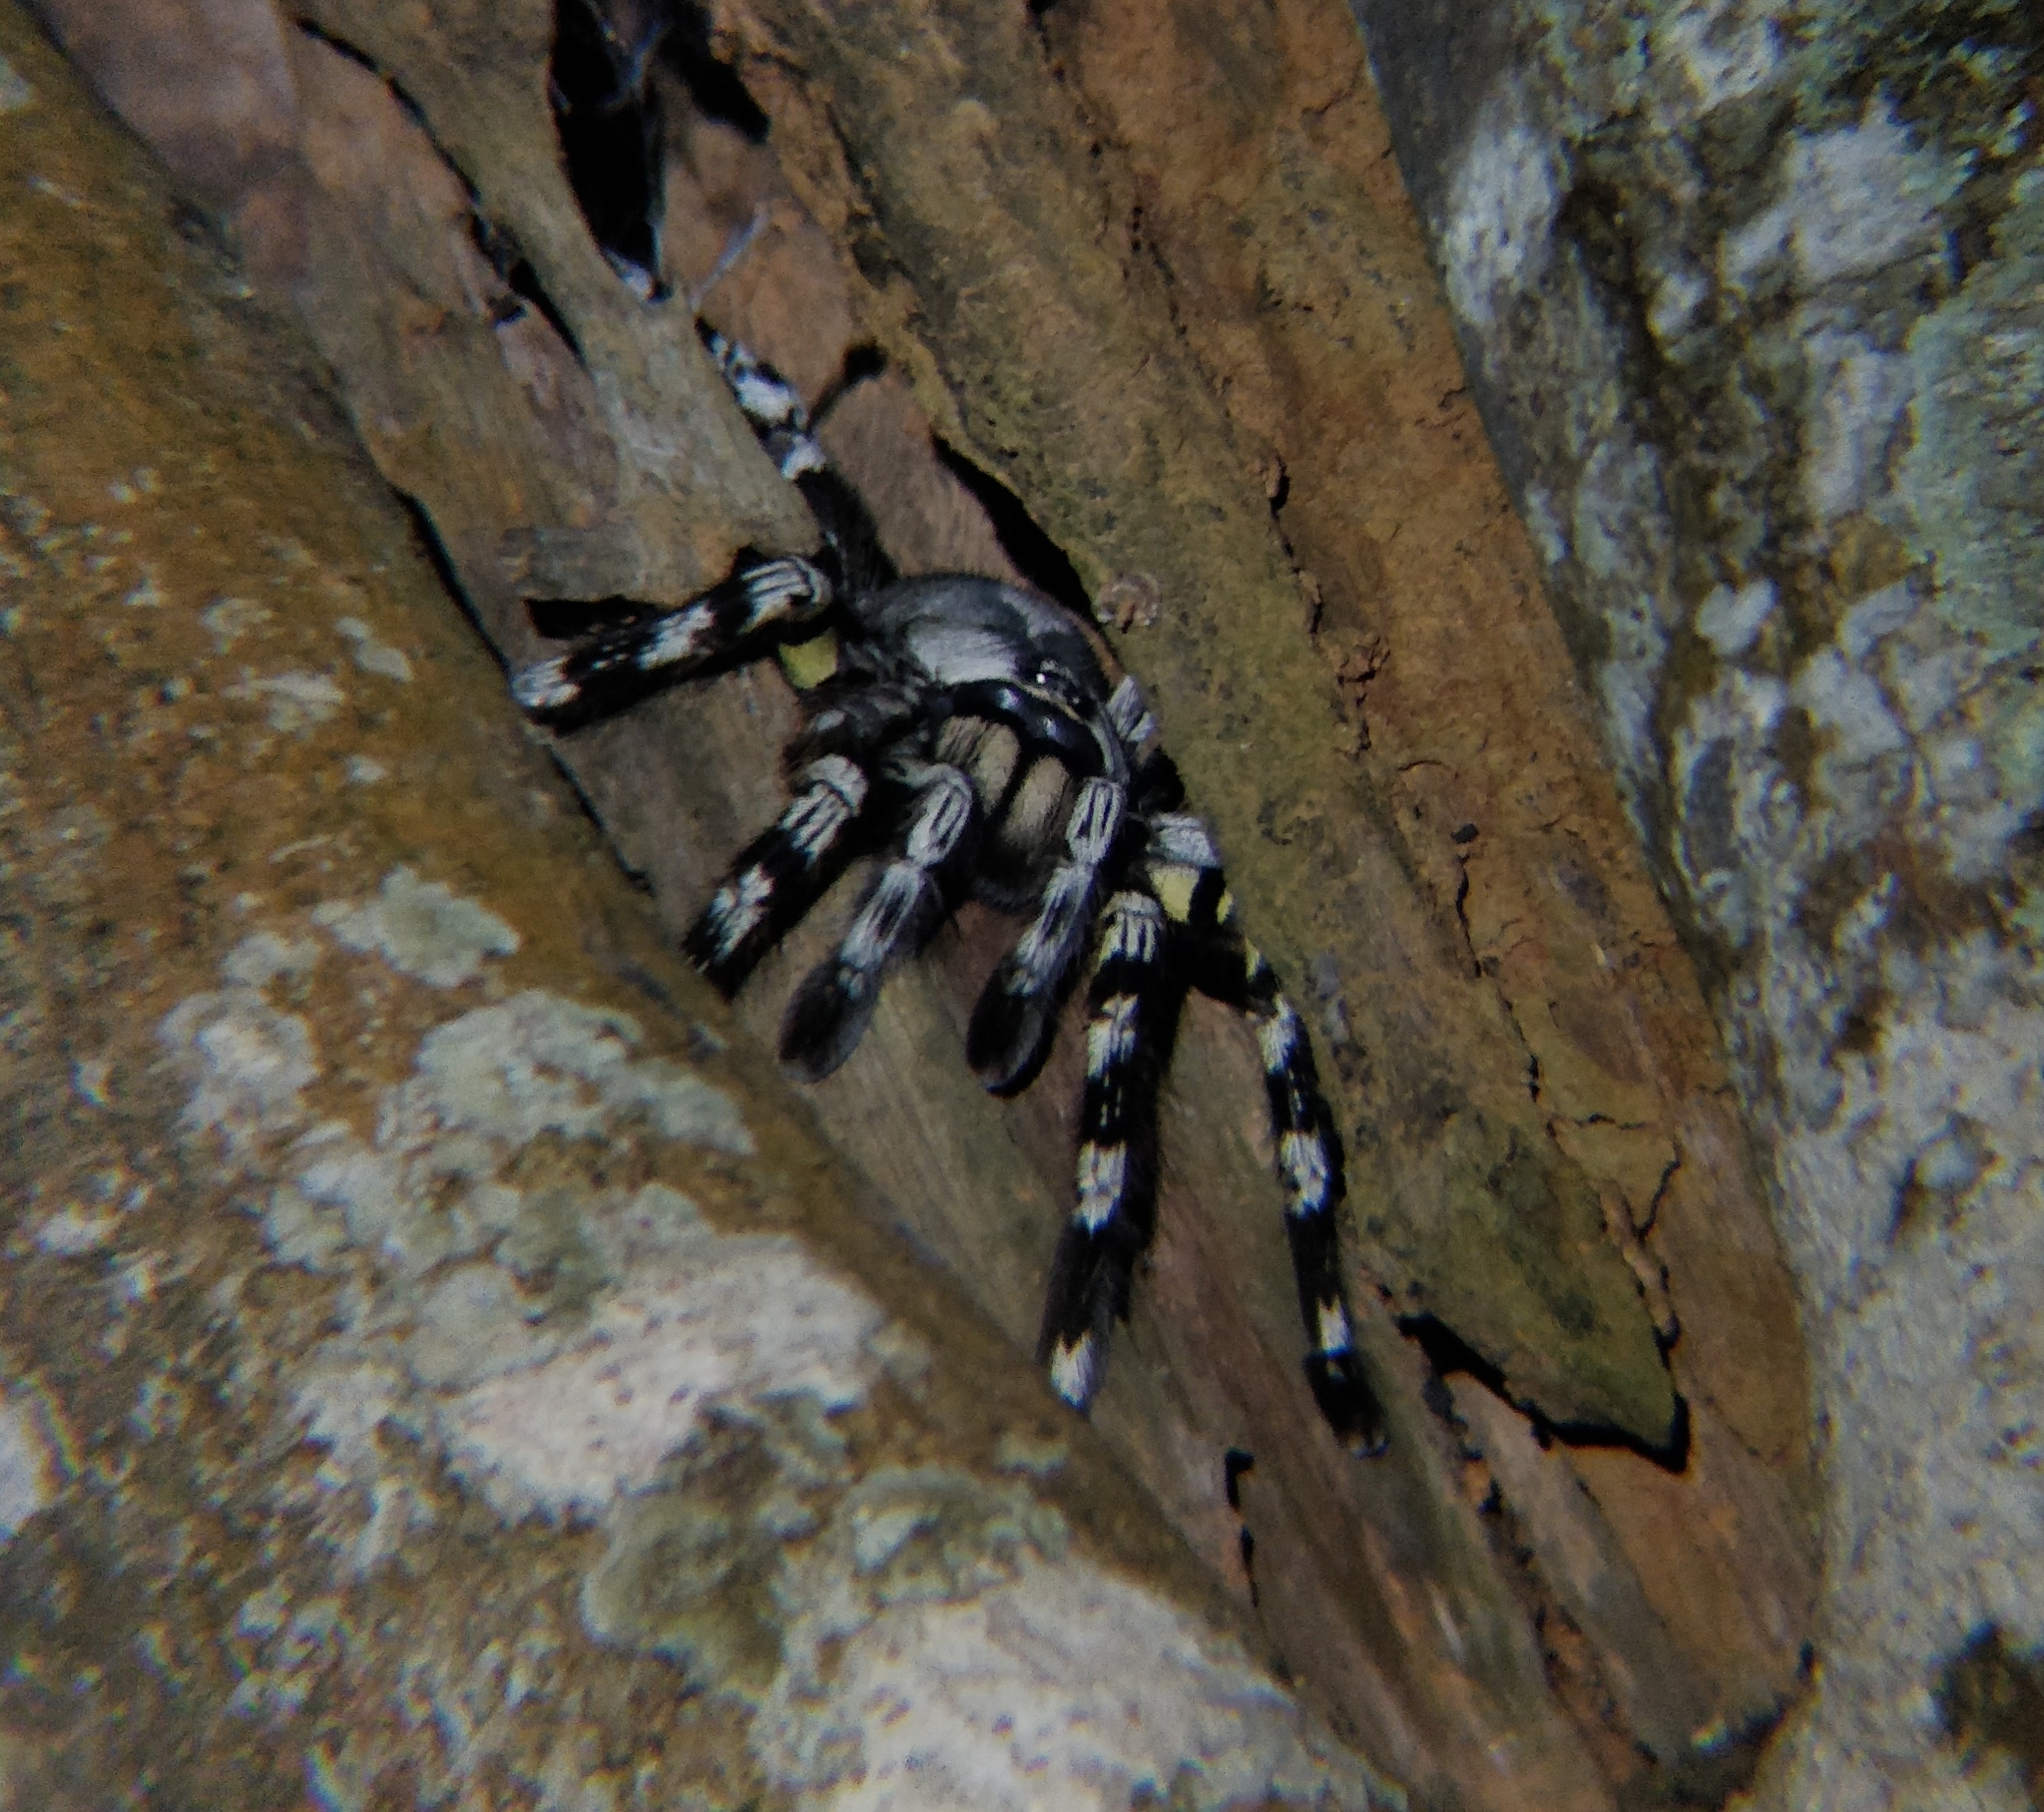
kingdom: Animalia
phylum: Arthropoda
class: Arachnida
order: Araneae
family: Theraphosidae
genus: Poecilotheria
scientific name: Poecilotheria regalis
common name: Indian ornamental
